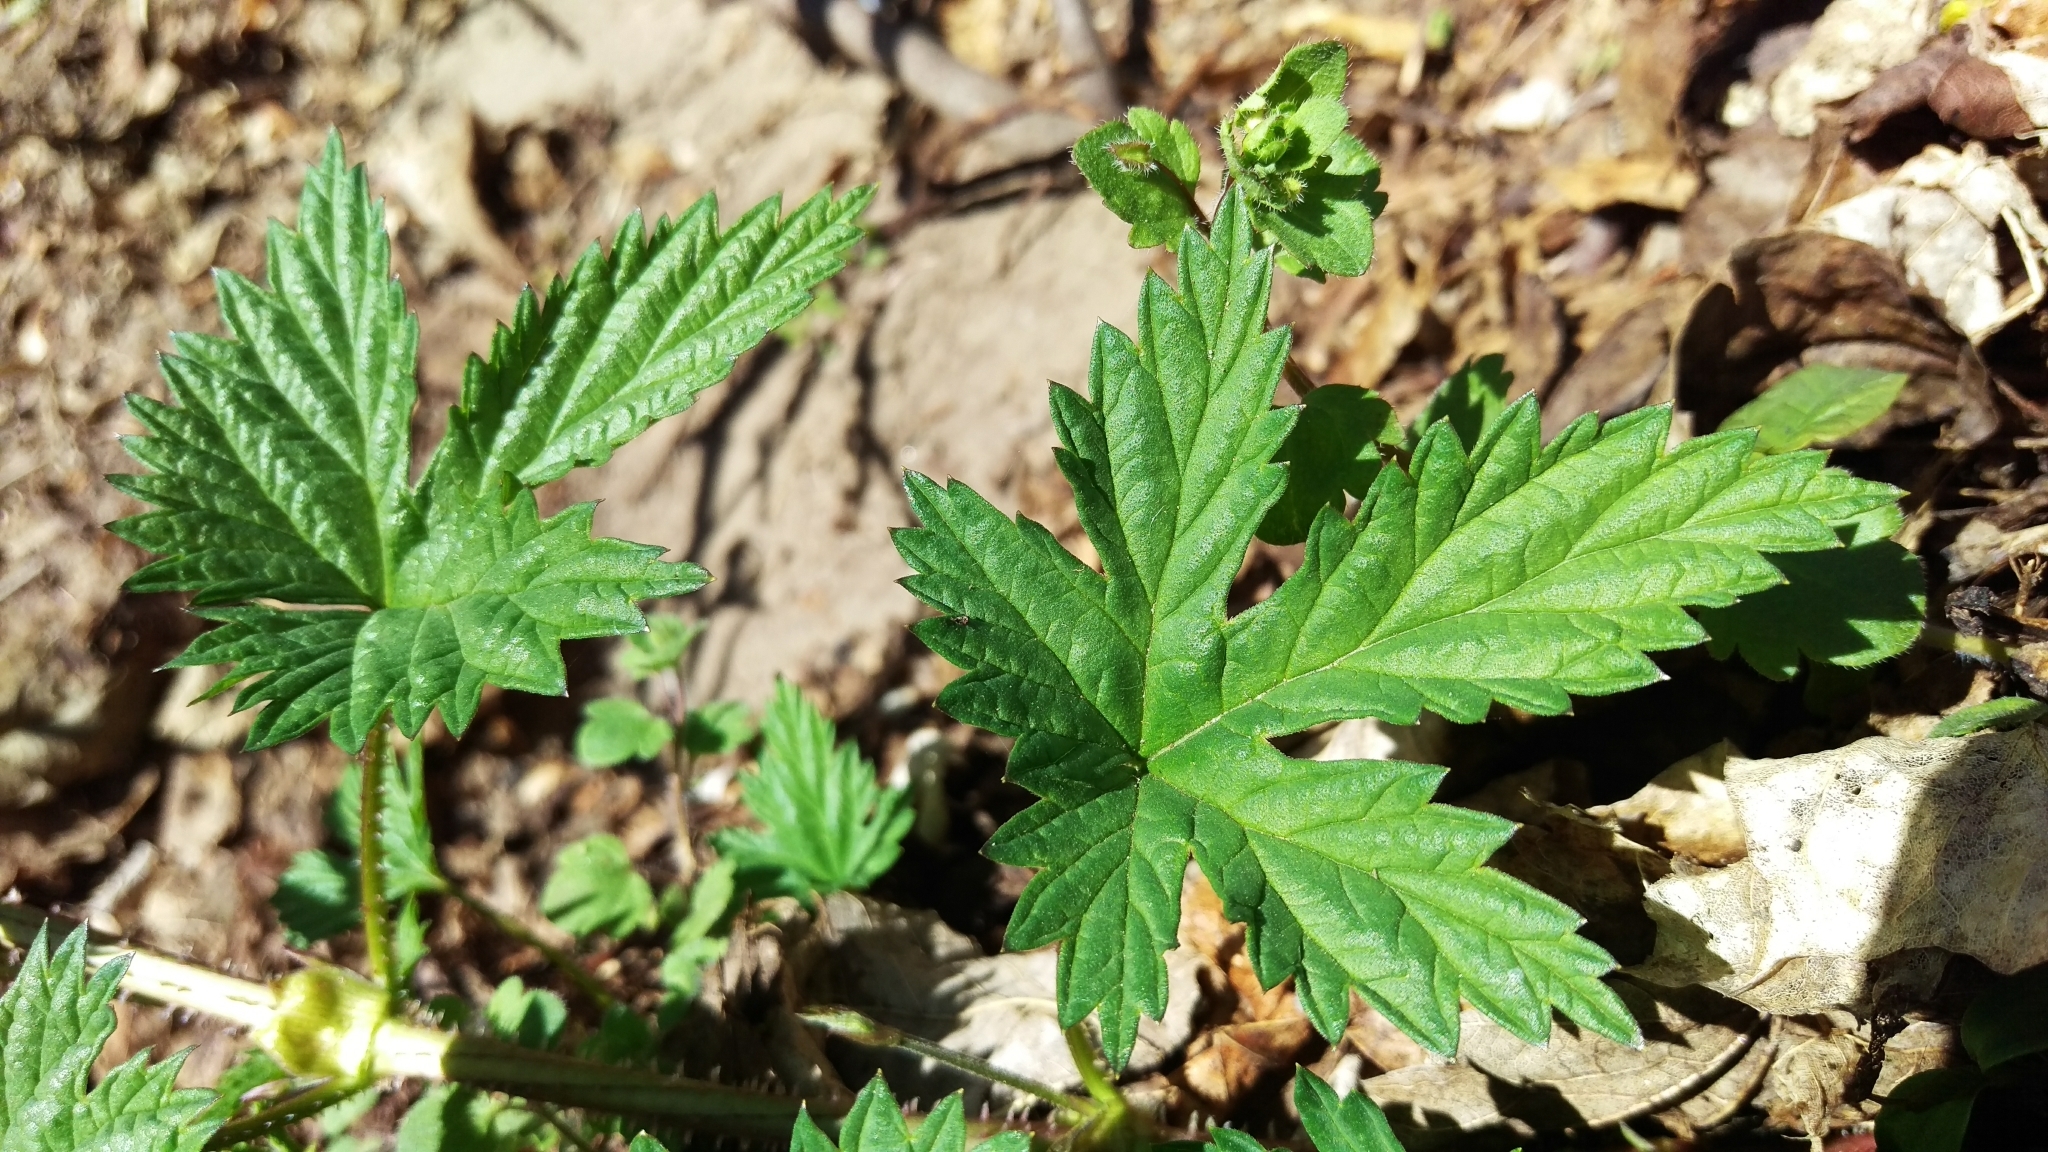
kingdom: Plantae
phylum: Tracheophyta
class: Magnoliopsida
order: Rosales
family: Cannabaceae
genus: Humulus
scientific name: Humulus lupulus
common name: Hop
